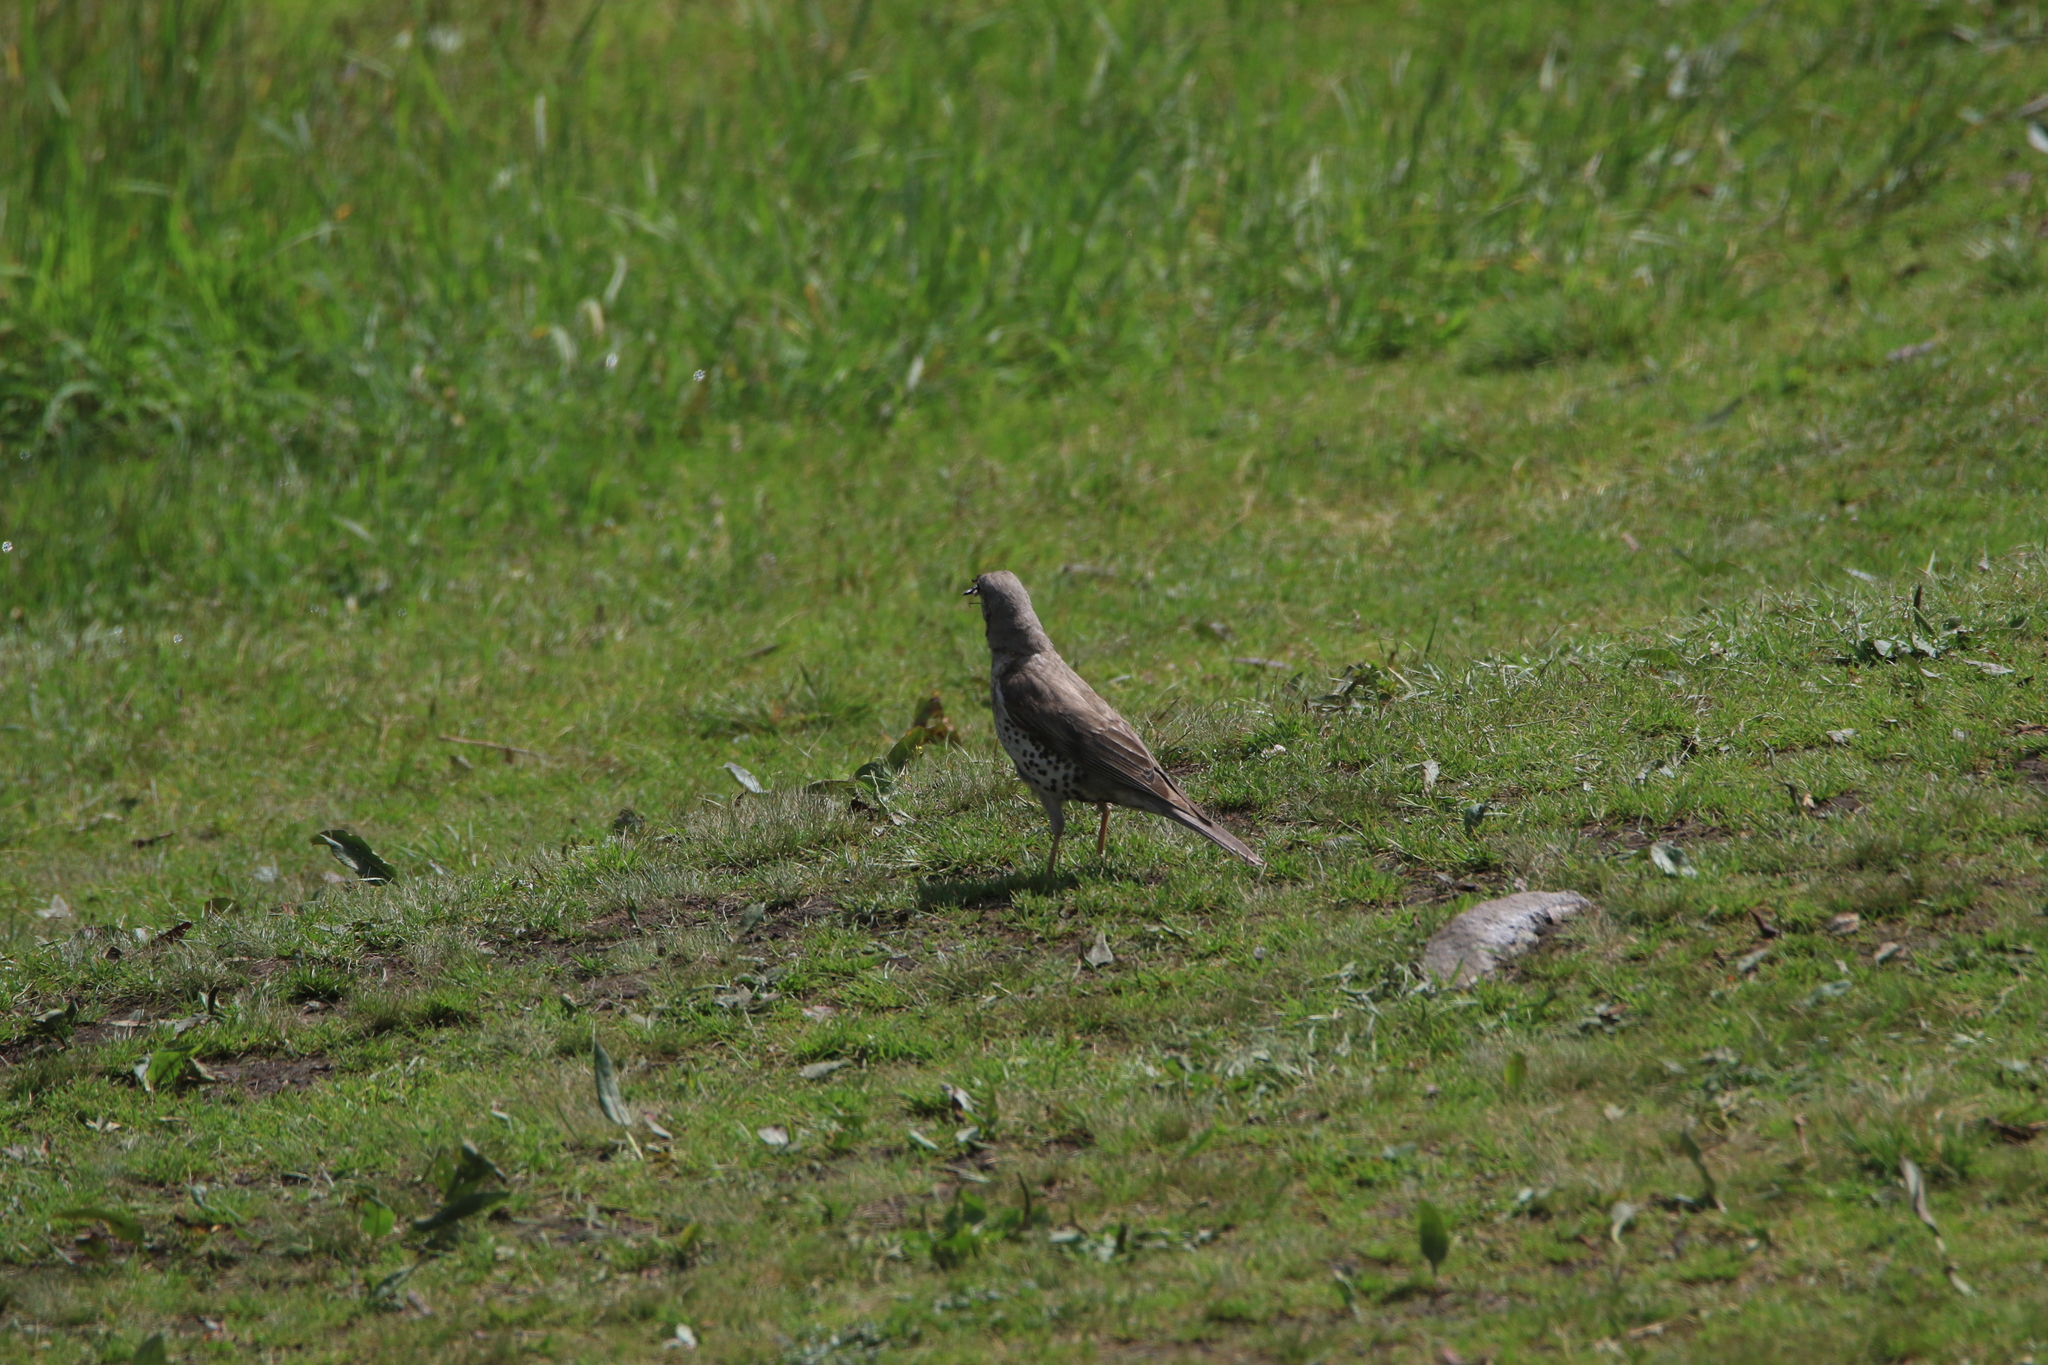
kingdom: Animalia
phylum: Chordata
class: Aves
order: Passeriformes
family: Turdidae
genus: Turdus
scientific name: Turdus viscivorus
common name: Mistle thrush
